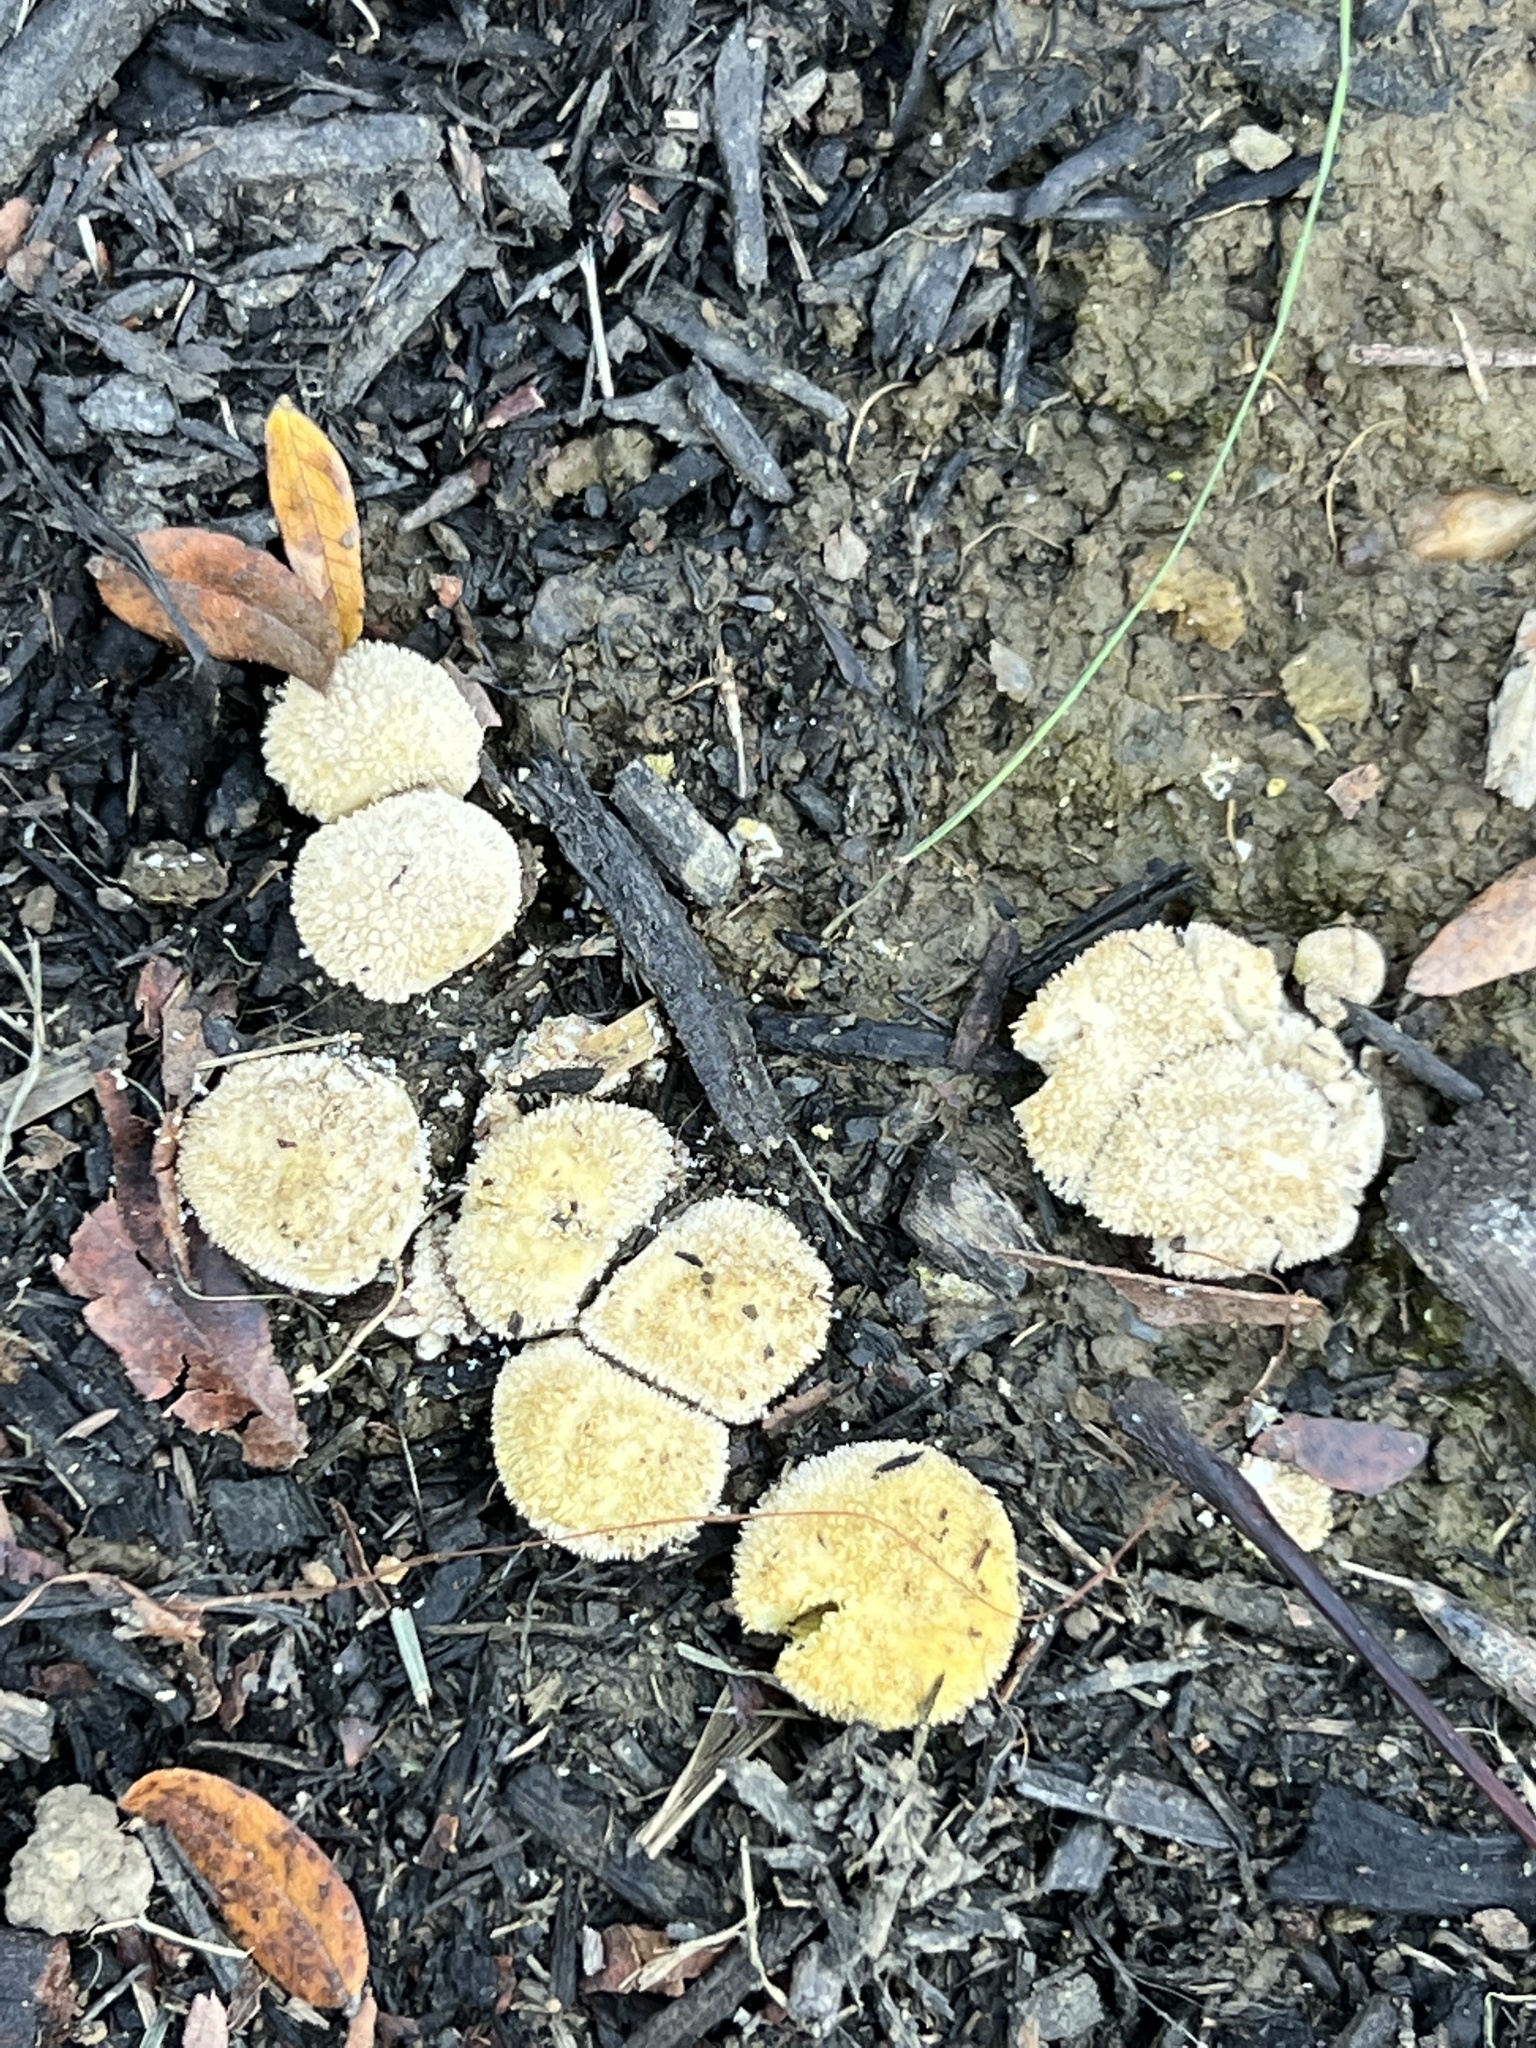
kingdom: Fungi
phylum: Basidiomycota
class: Agaricomycetes
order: Agaricales
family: Lycoperdaceae
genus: Lycoperdon
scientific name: Lycoperdon curtisii
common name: Curtis's puffball
